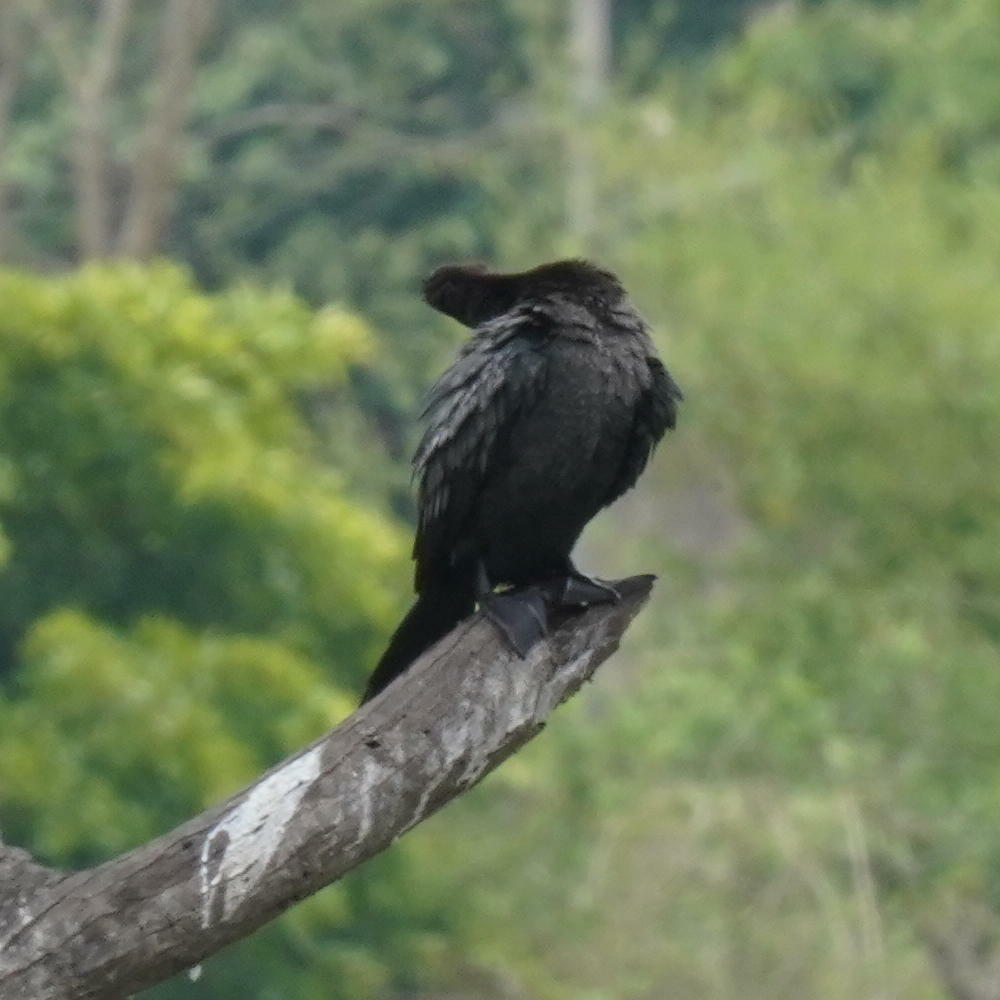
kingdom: Animalia
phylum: Chordata
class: Aves
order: Suliformes
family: Phalacrocoracidae
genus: Microcarbo
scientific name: Microcarbo niger
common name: Little cormorant
